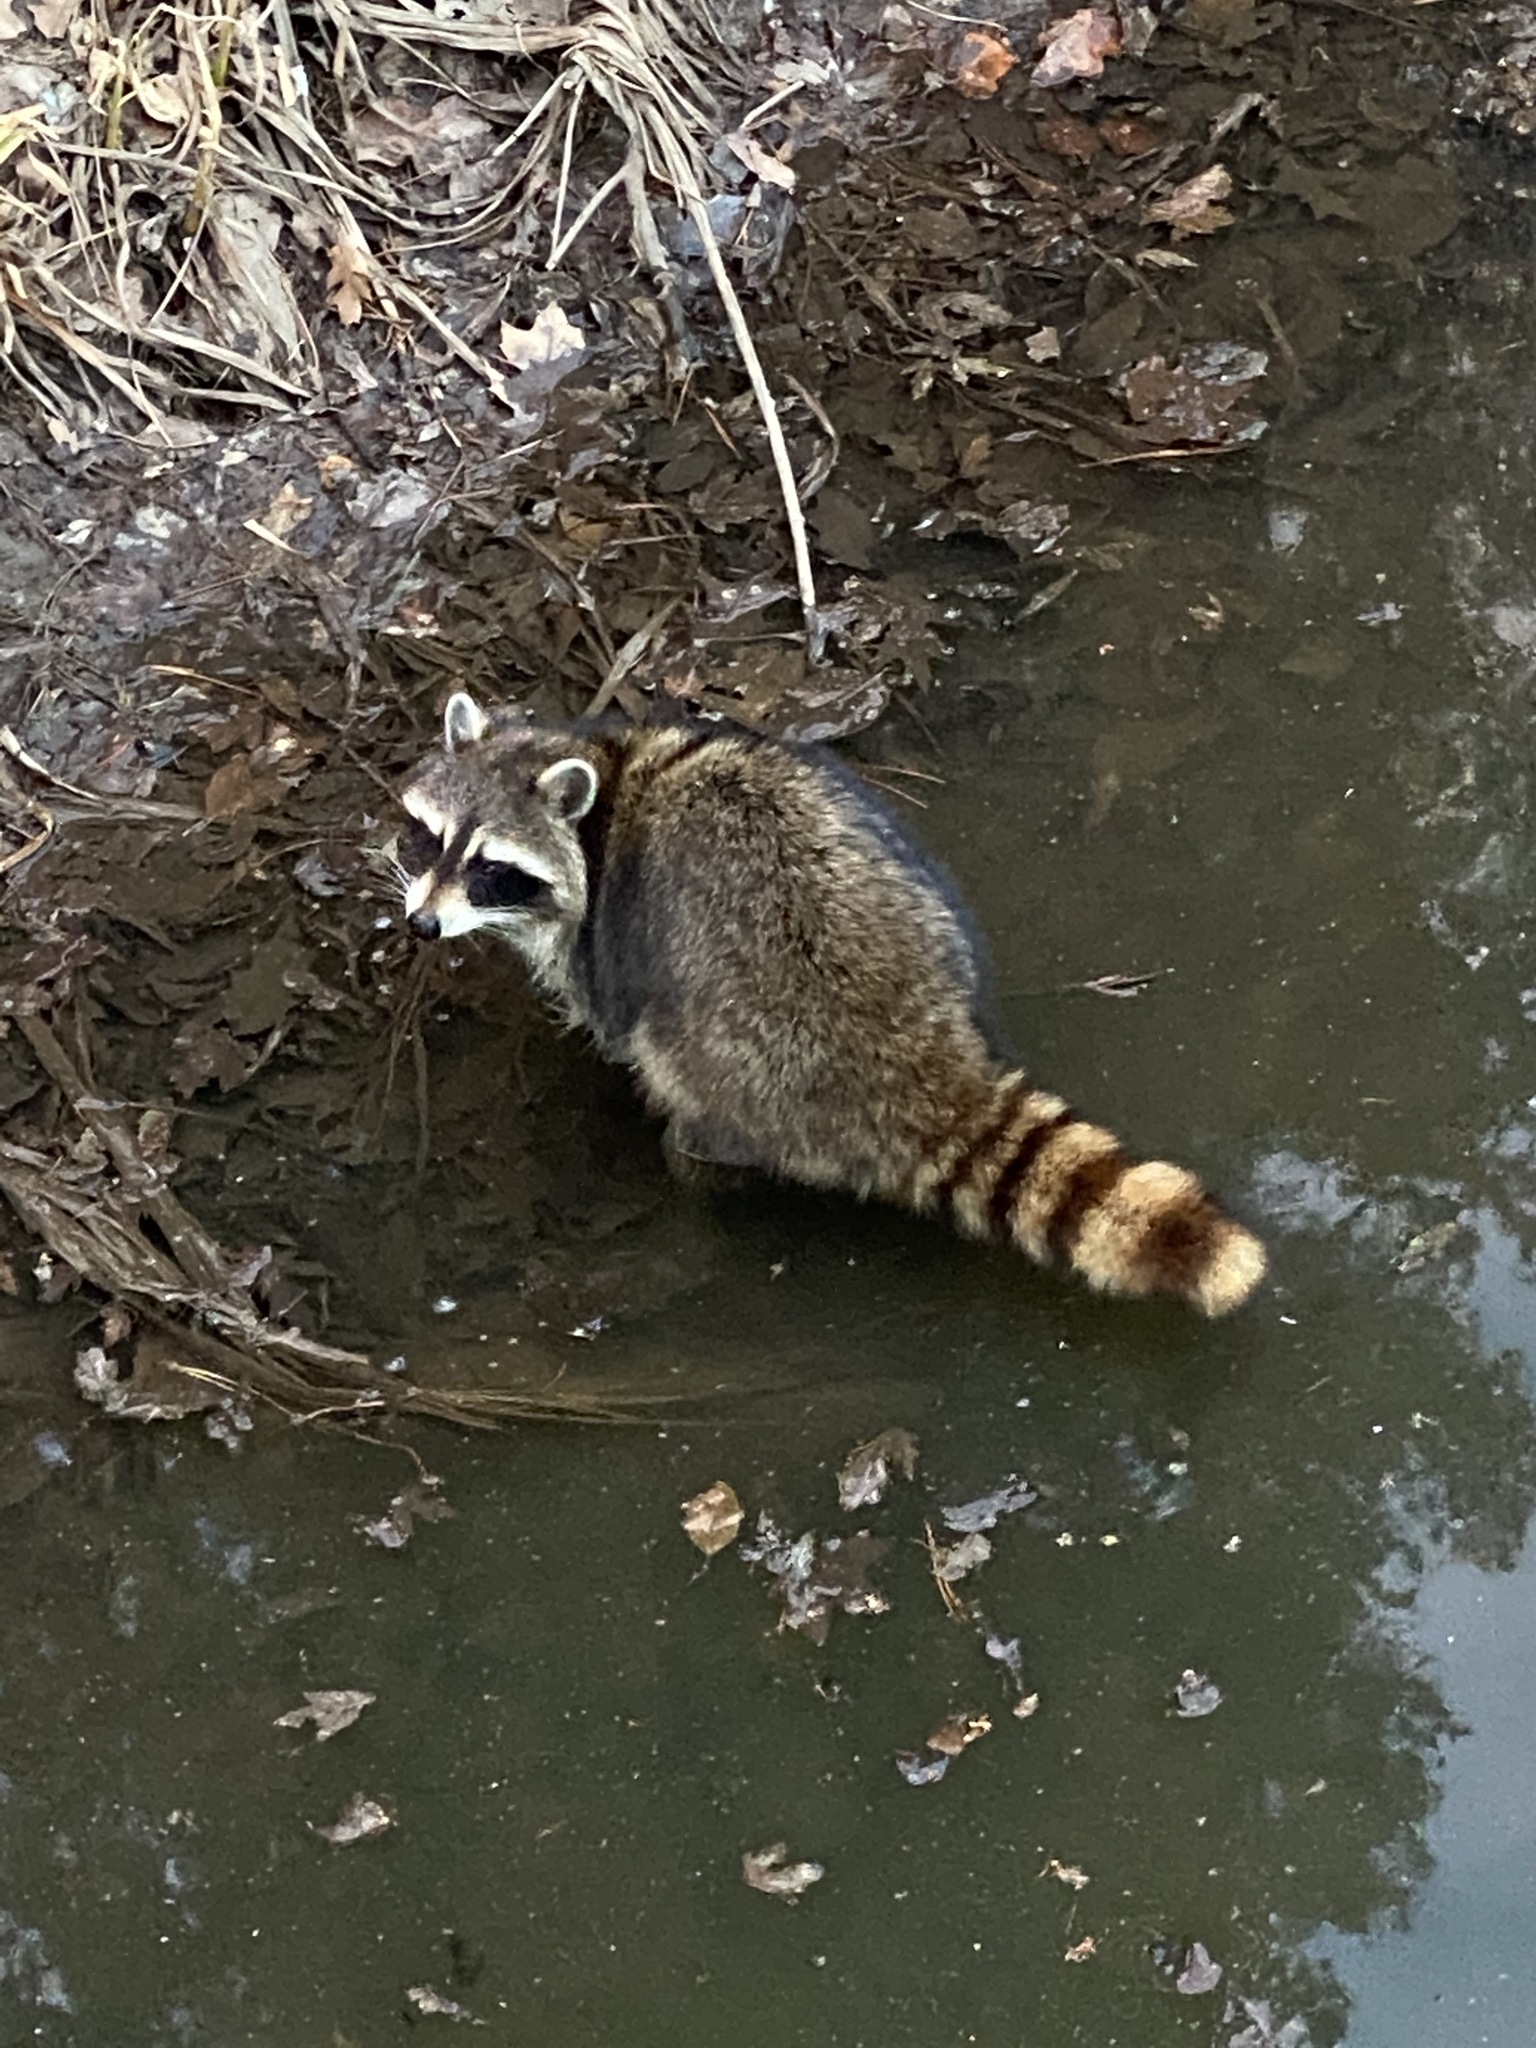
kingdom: Animalia
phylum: Chordata
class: Mammalia
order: Carnivora
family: Procyonidae
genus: Procyon
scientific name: Procyon lotor
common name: Raccoon
